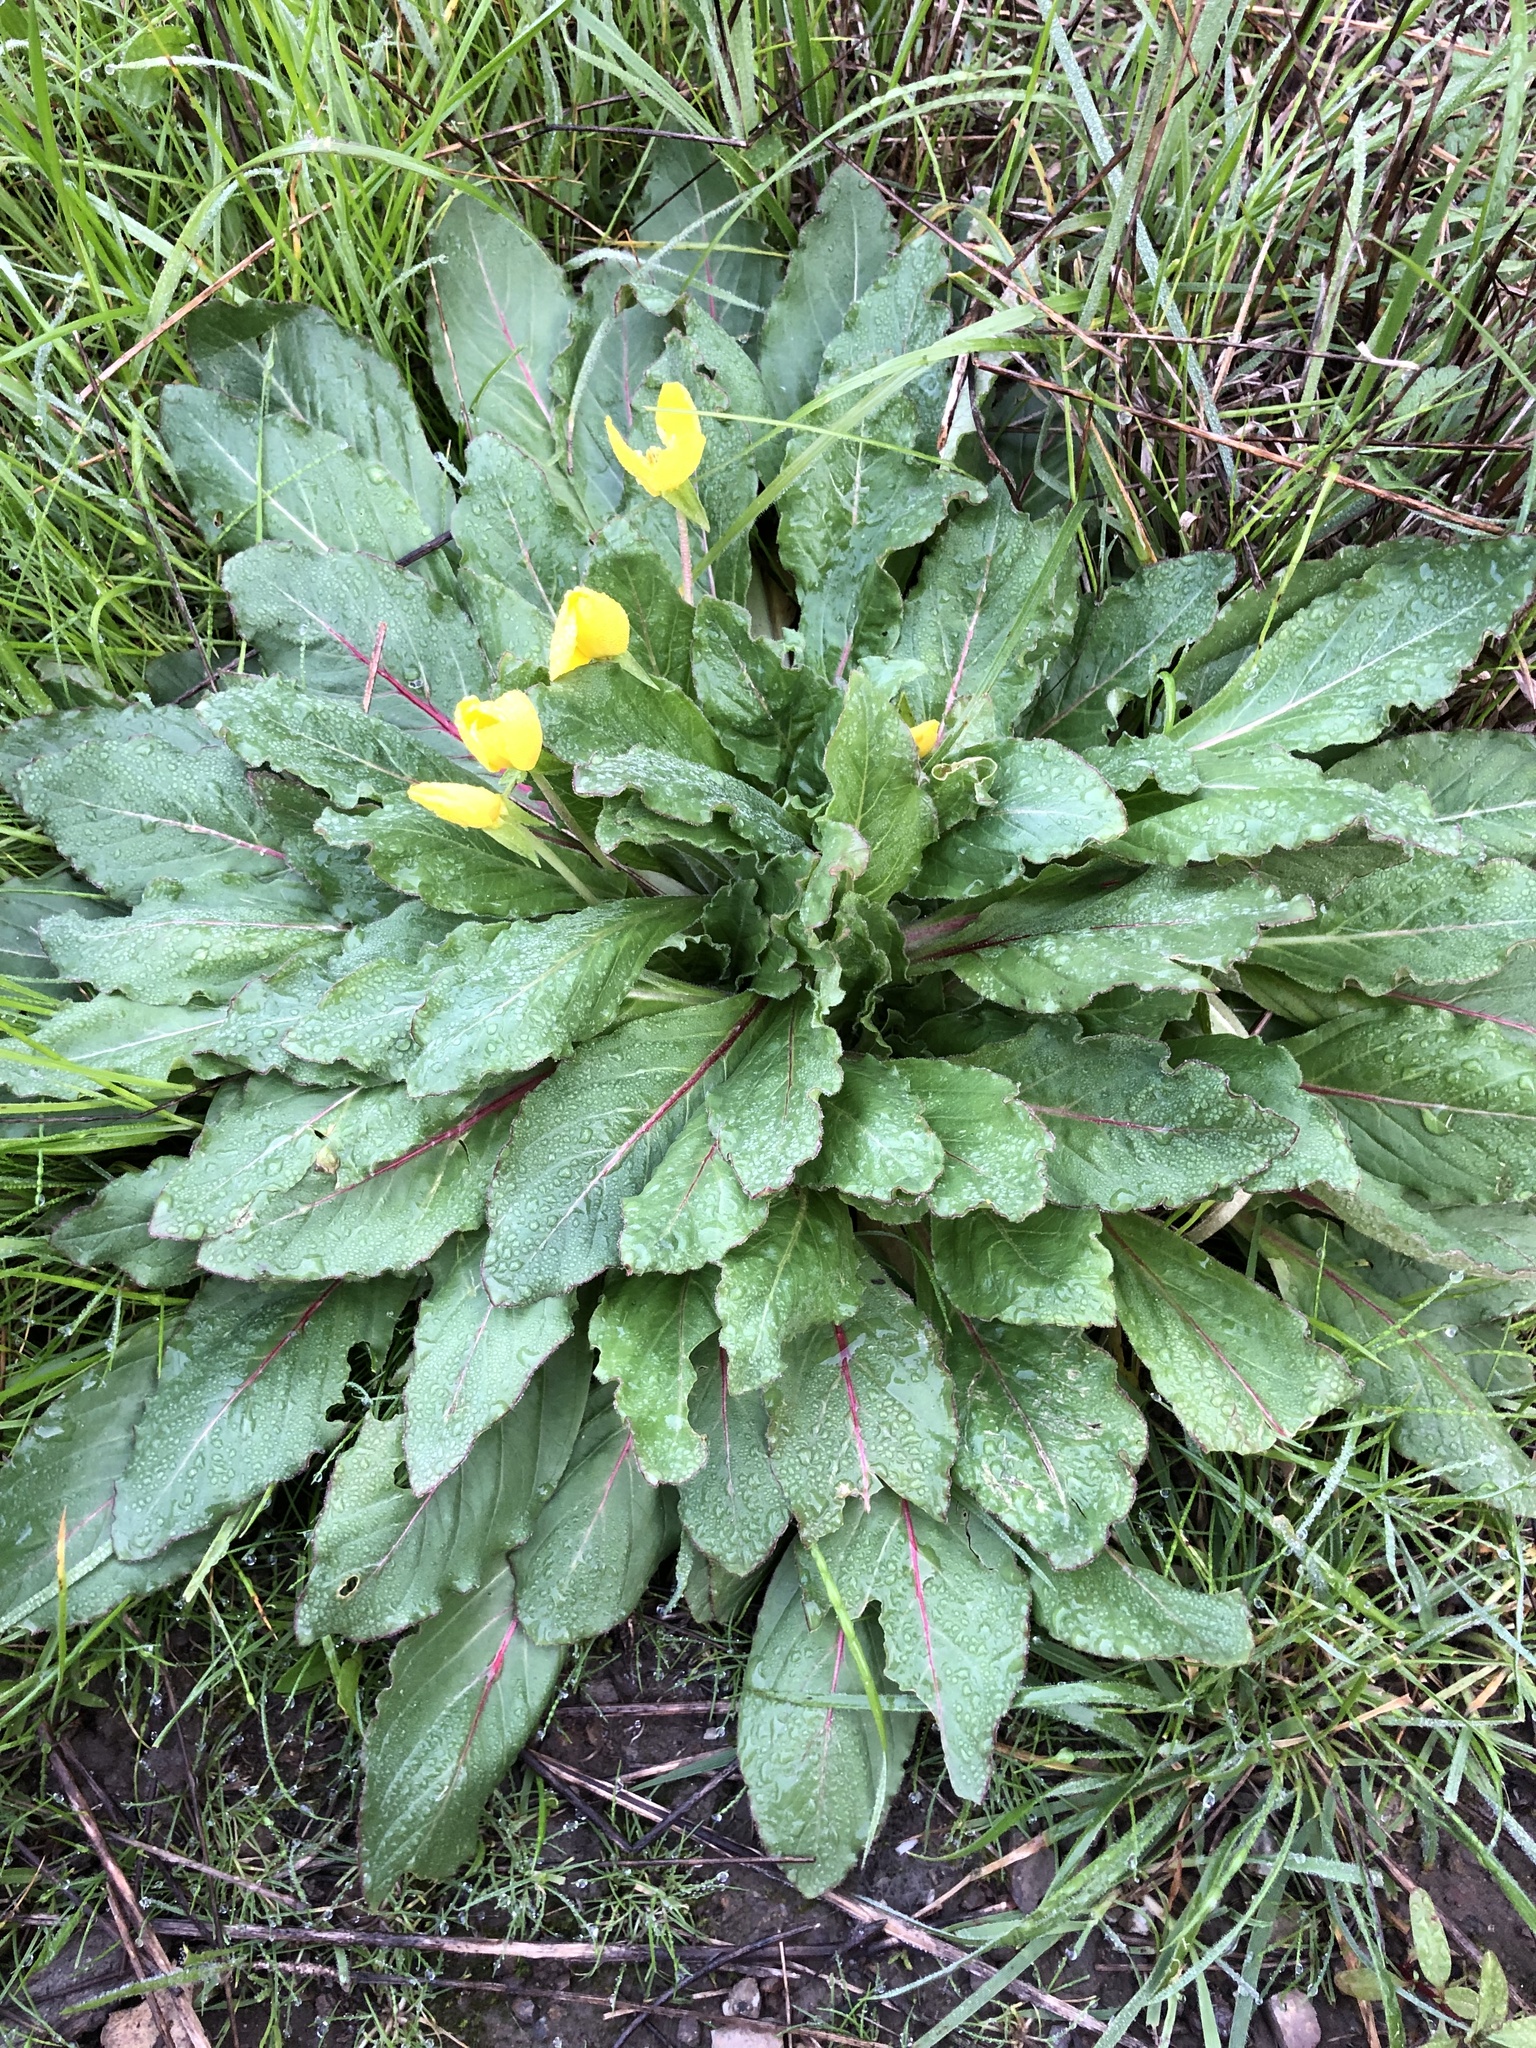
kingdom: Plantae
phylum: Tracheophyta
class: Magnoliopsida
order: Myrtales
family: Onagraceae
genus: Taraxia
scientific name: Taraxia ovata
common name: Goldeneggs
